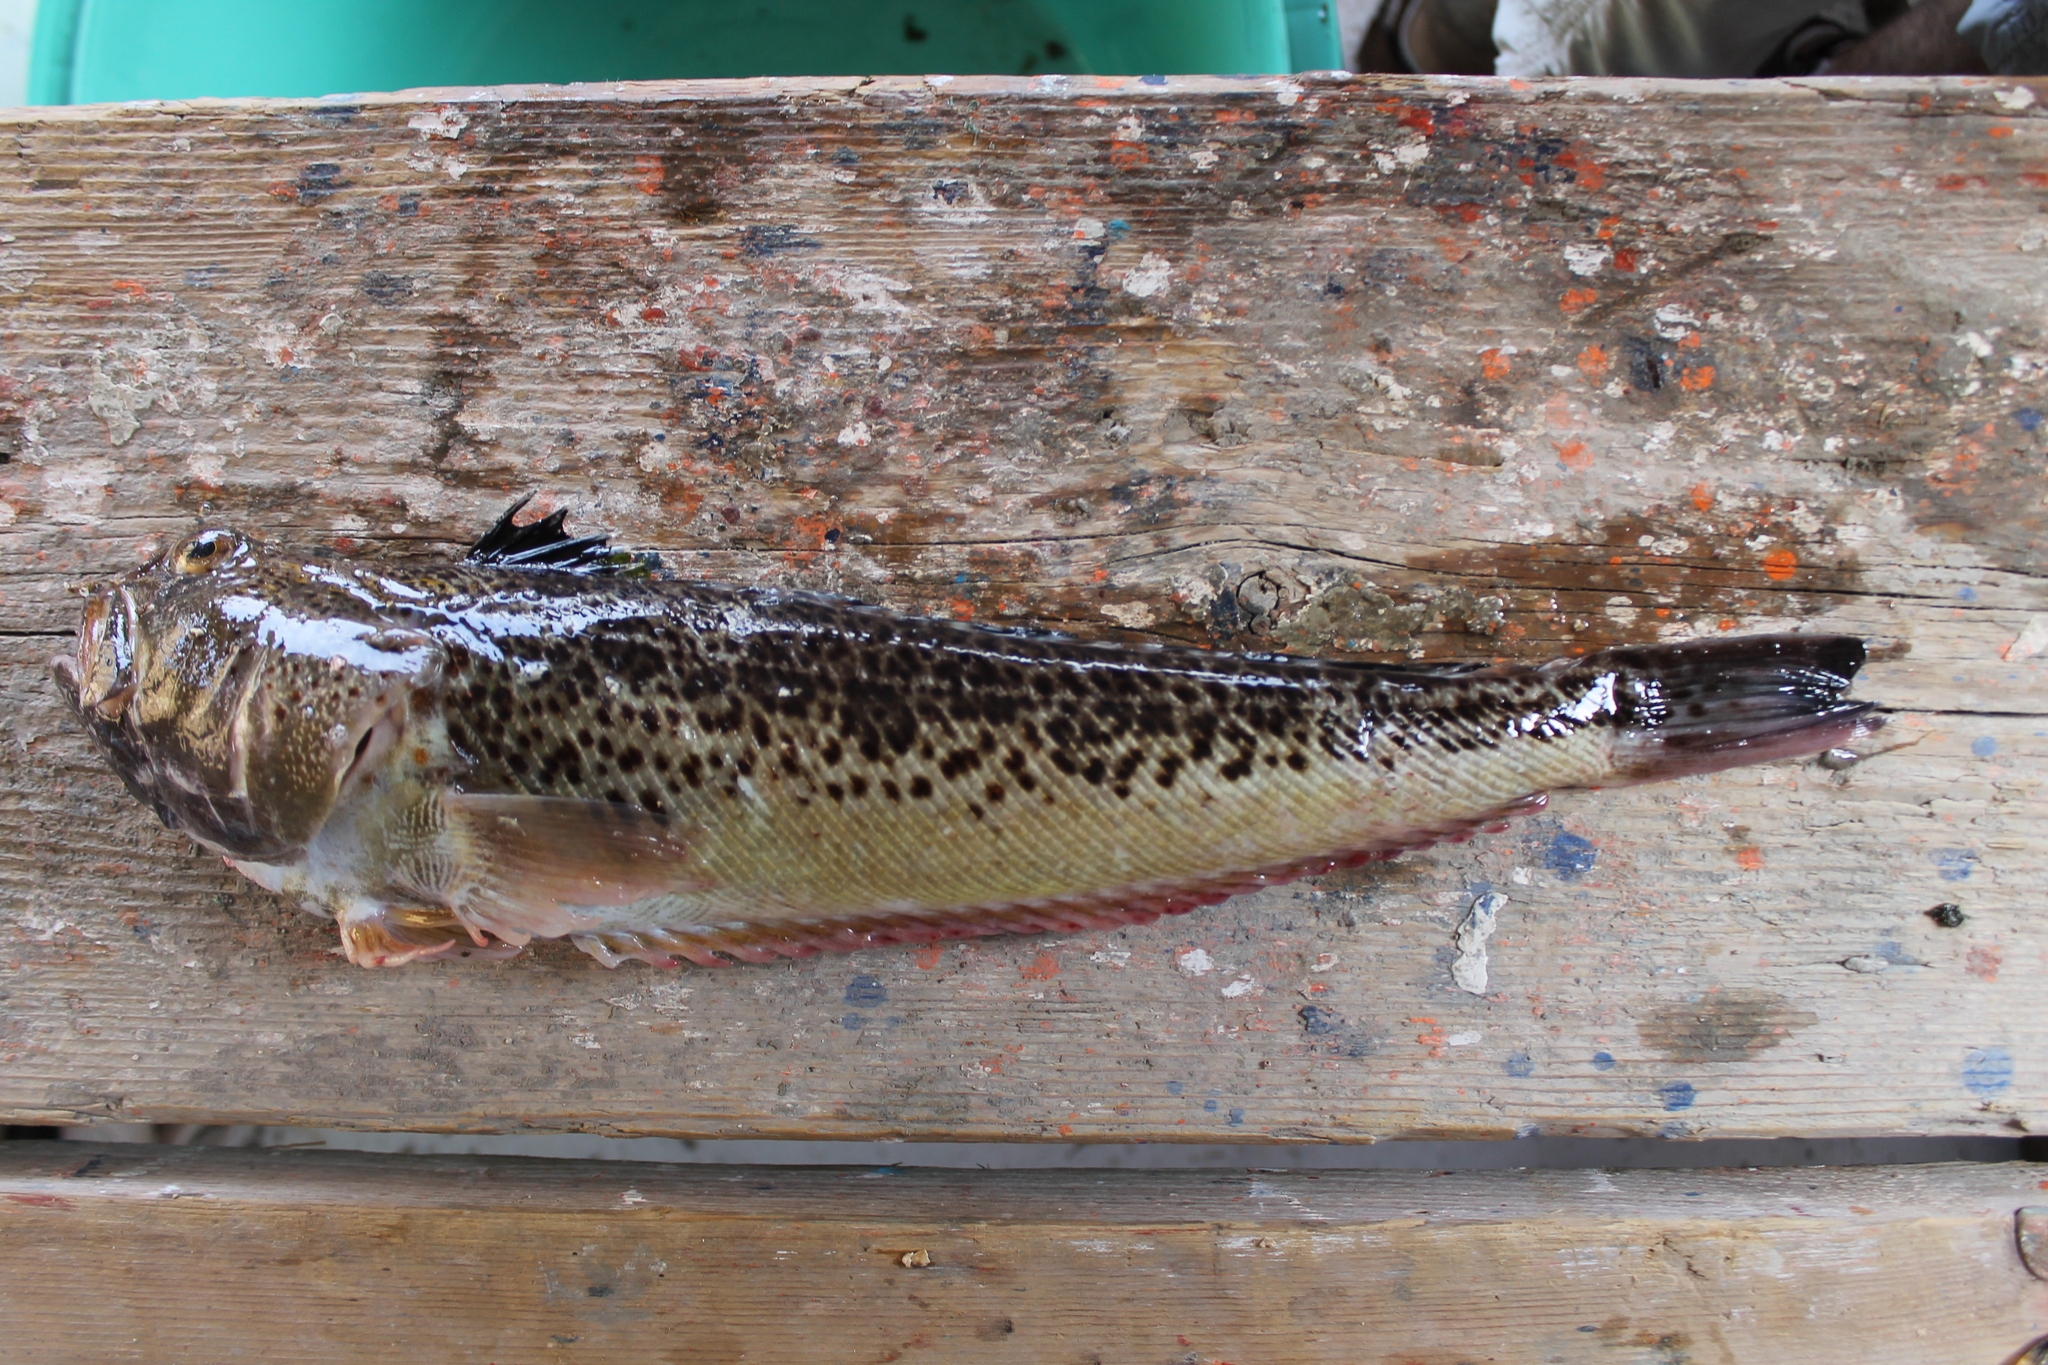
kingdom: Animalia
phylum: Chordata
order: Perciformes
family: Trachinidae
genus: Trachinus
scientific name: Trachinus radiatus
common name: Starry weever
